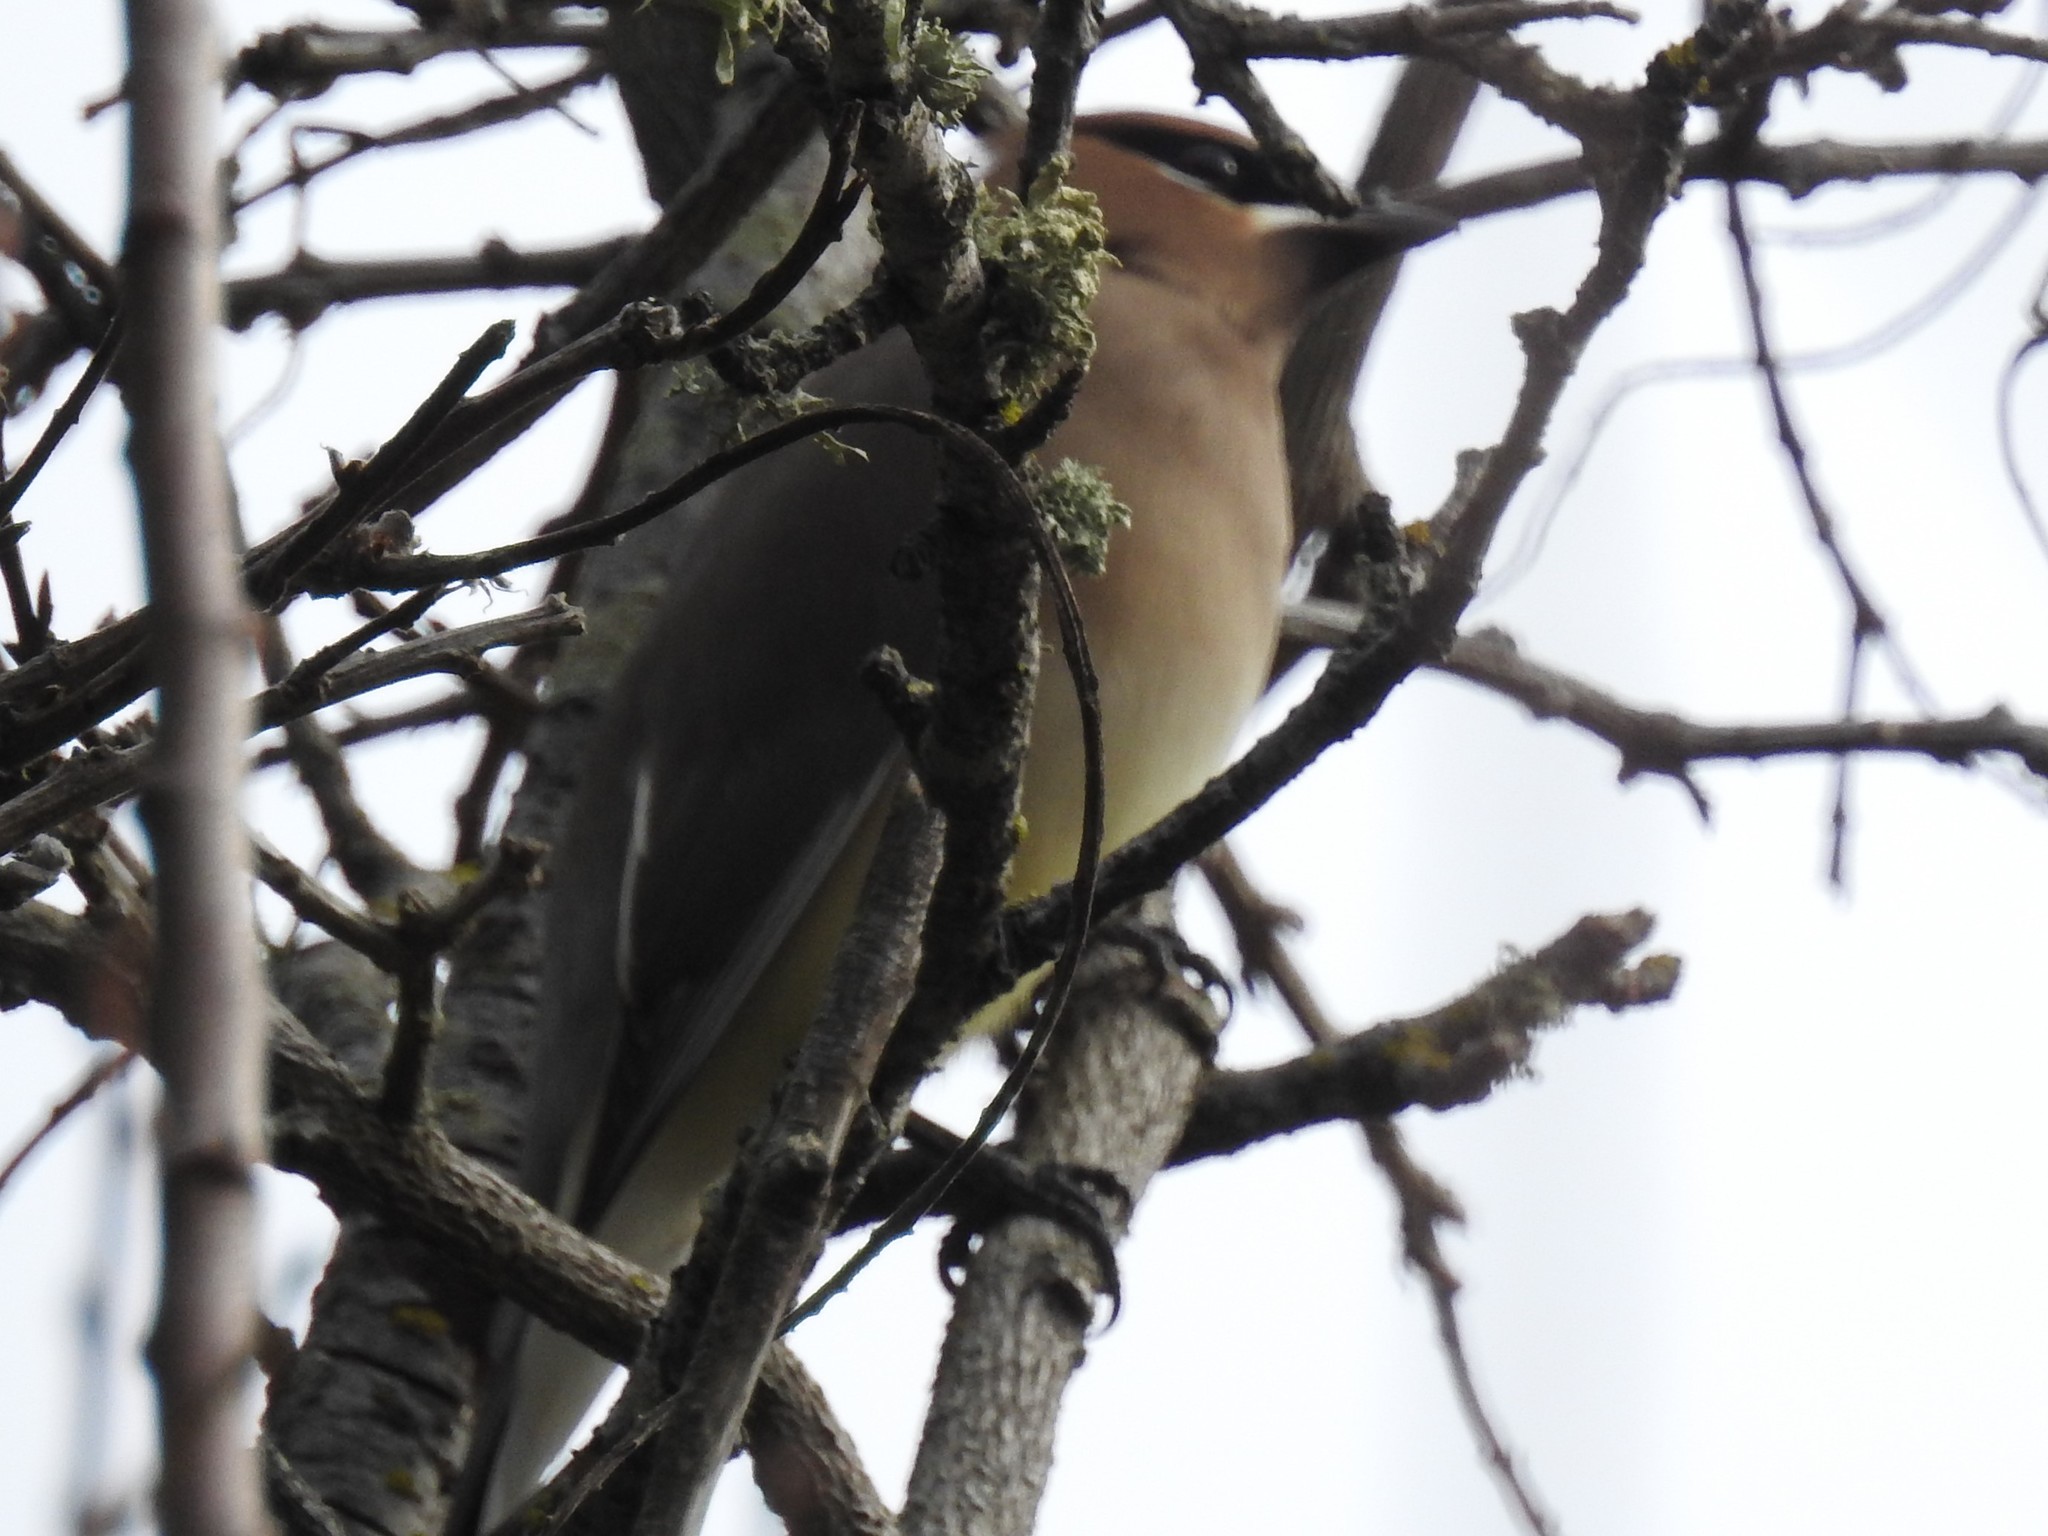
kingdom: Animalia
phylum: Chordata
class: Aves
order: Passeriformes
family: Bombycillidae
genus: Bombycilla
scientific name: Bombycilla cedrorum
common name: Cedar waxwing
